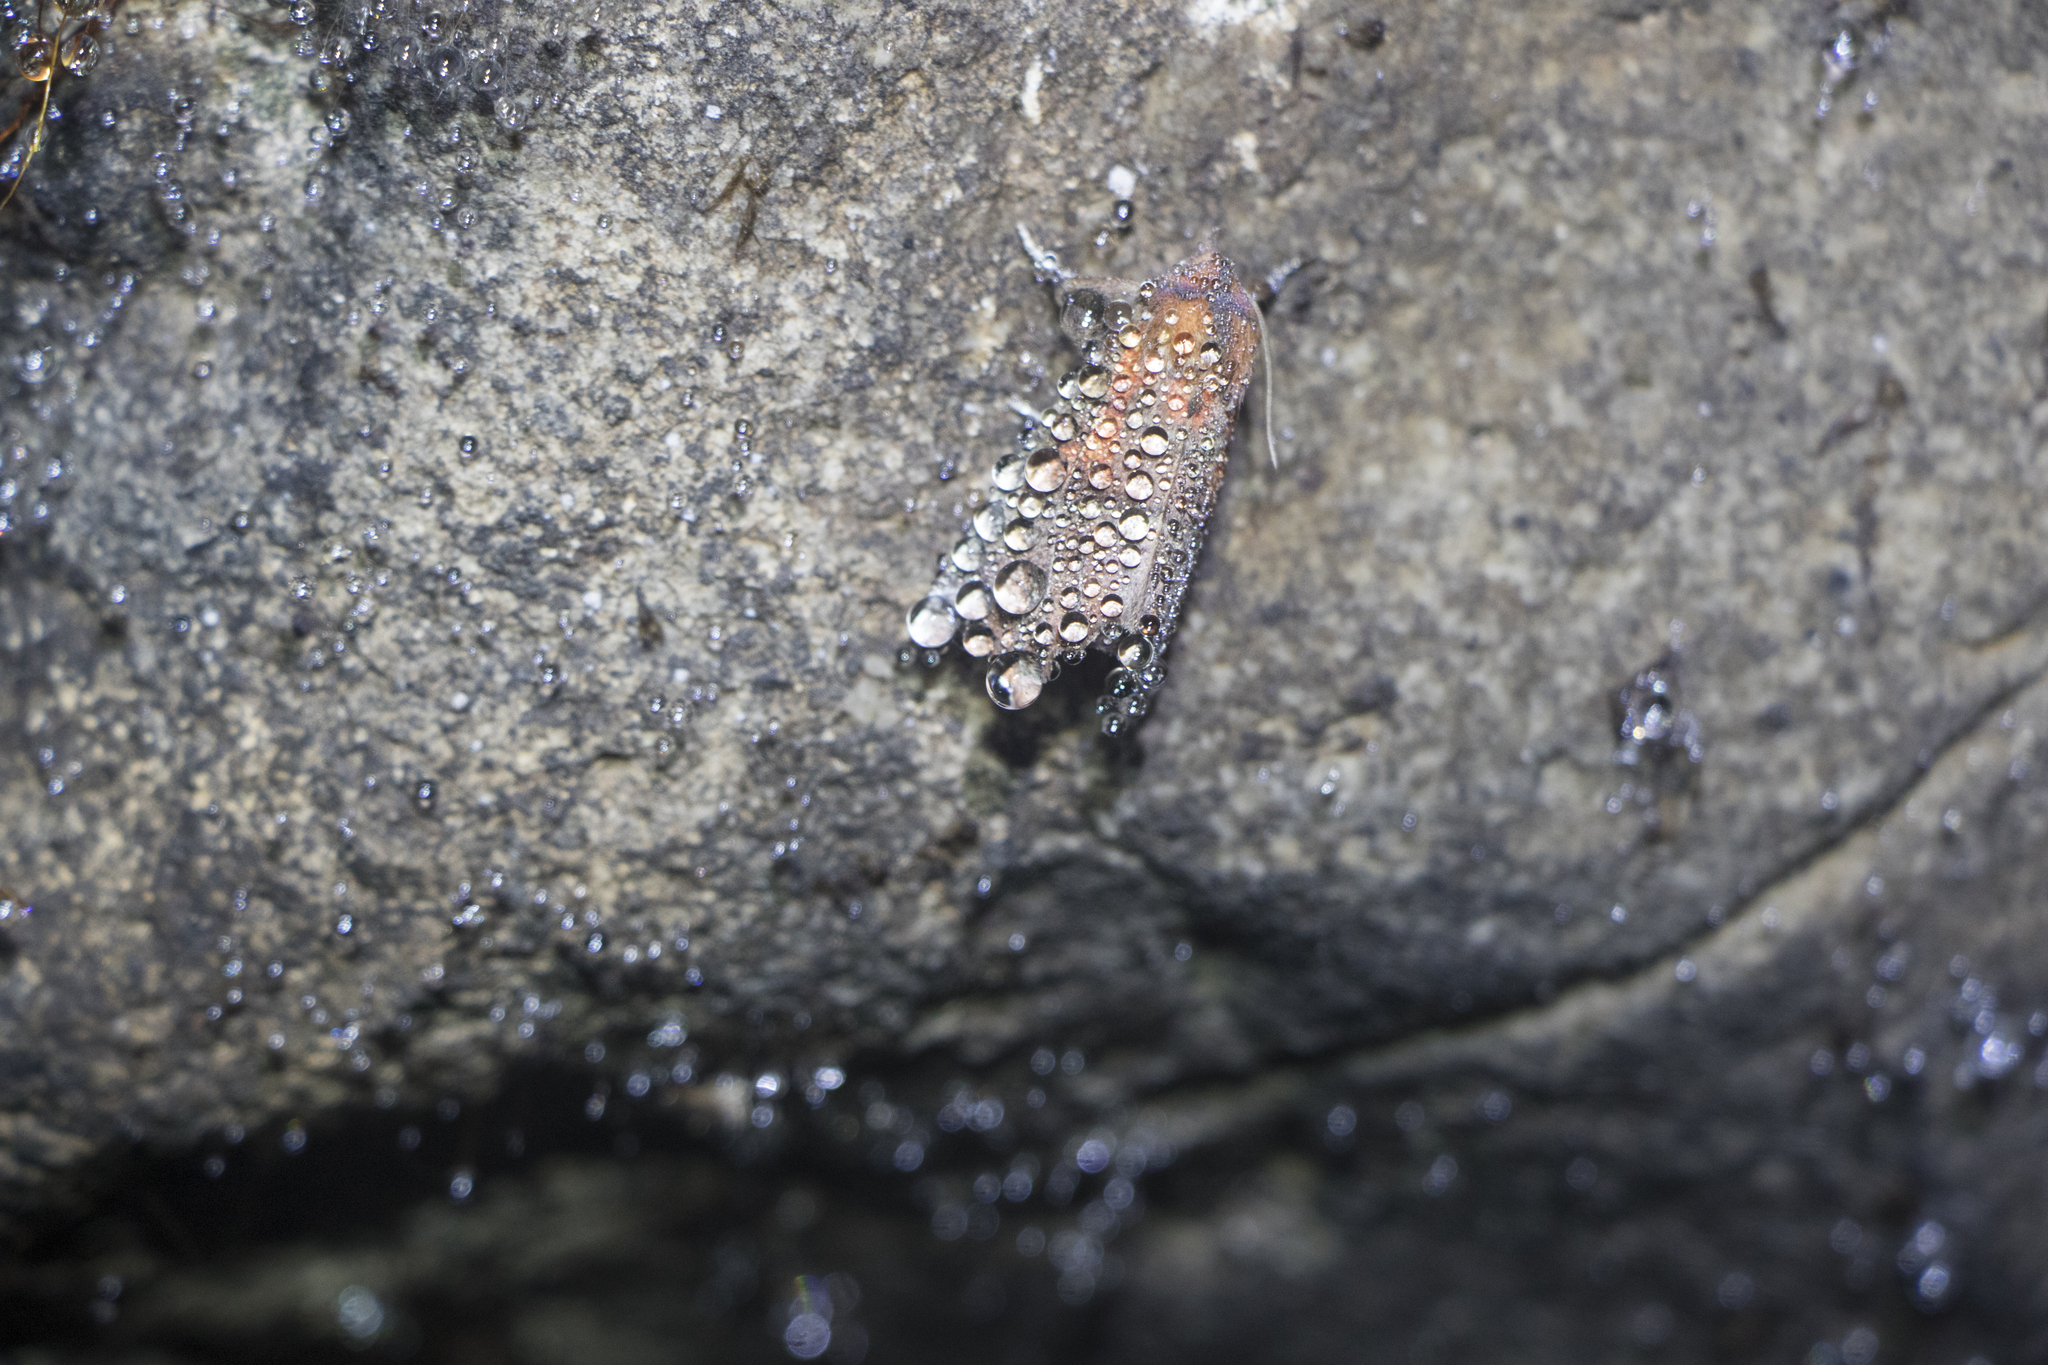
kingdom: Animalia
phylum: Arthropoda
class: Insecta
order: Lepidoptera
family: Erebidae
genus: Scoliopteryx
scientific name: Scoliopteryx libatrix
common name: Herald
